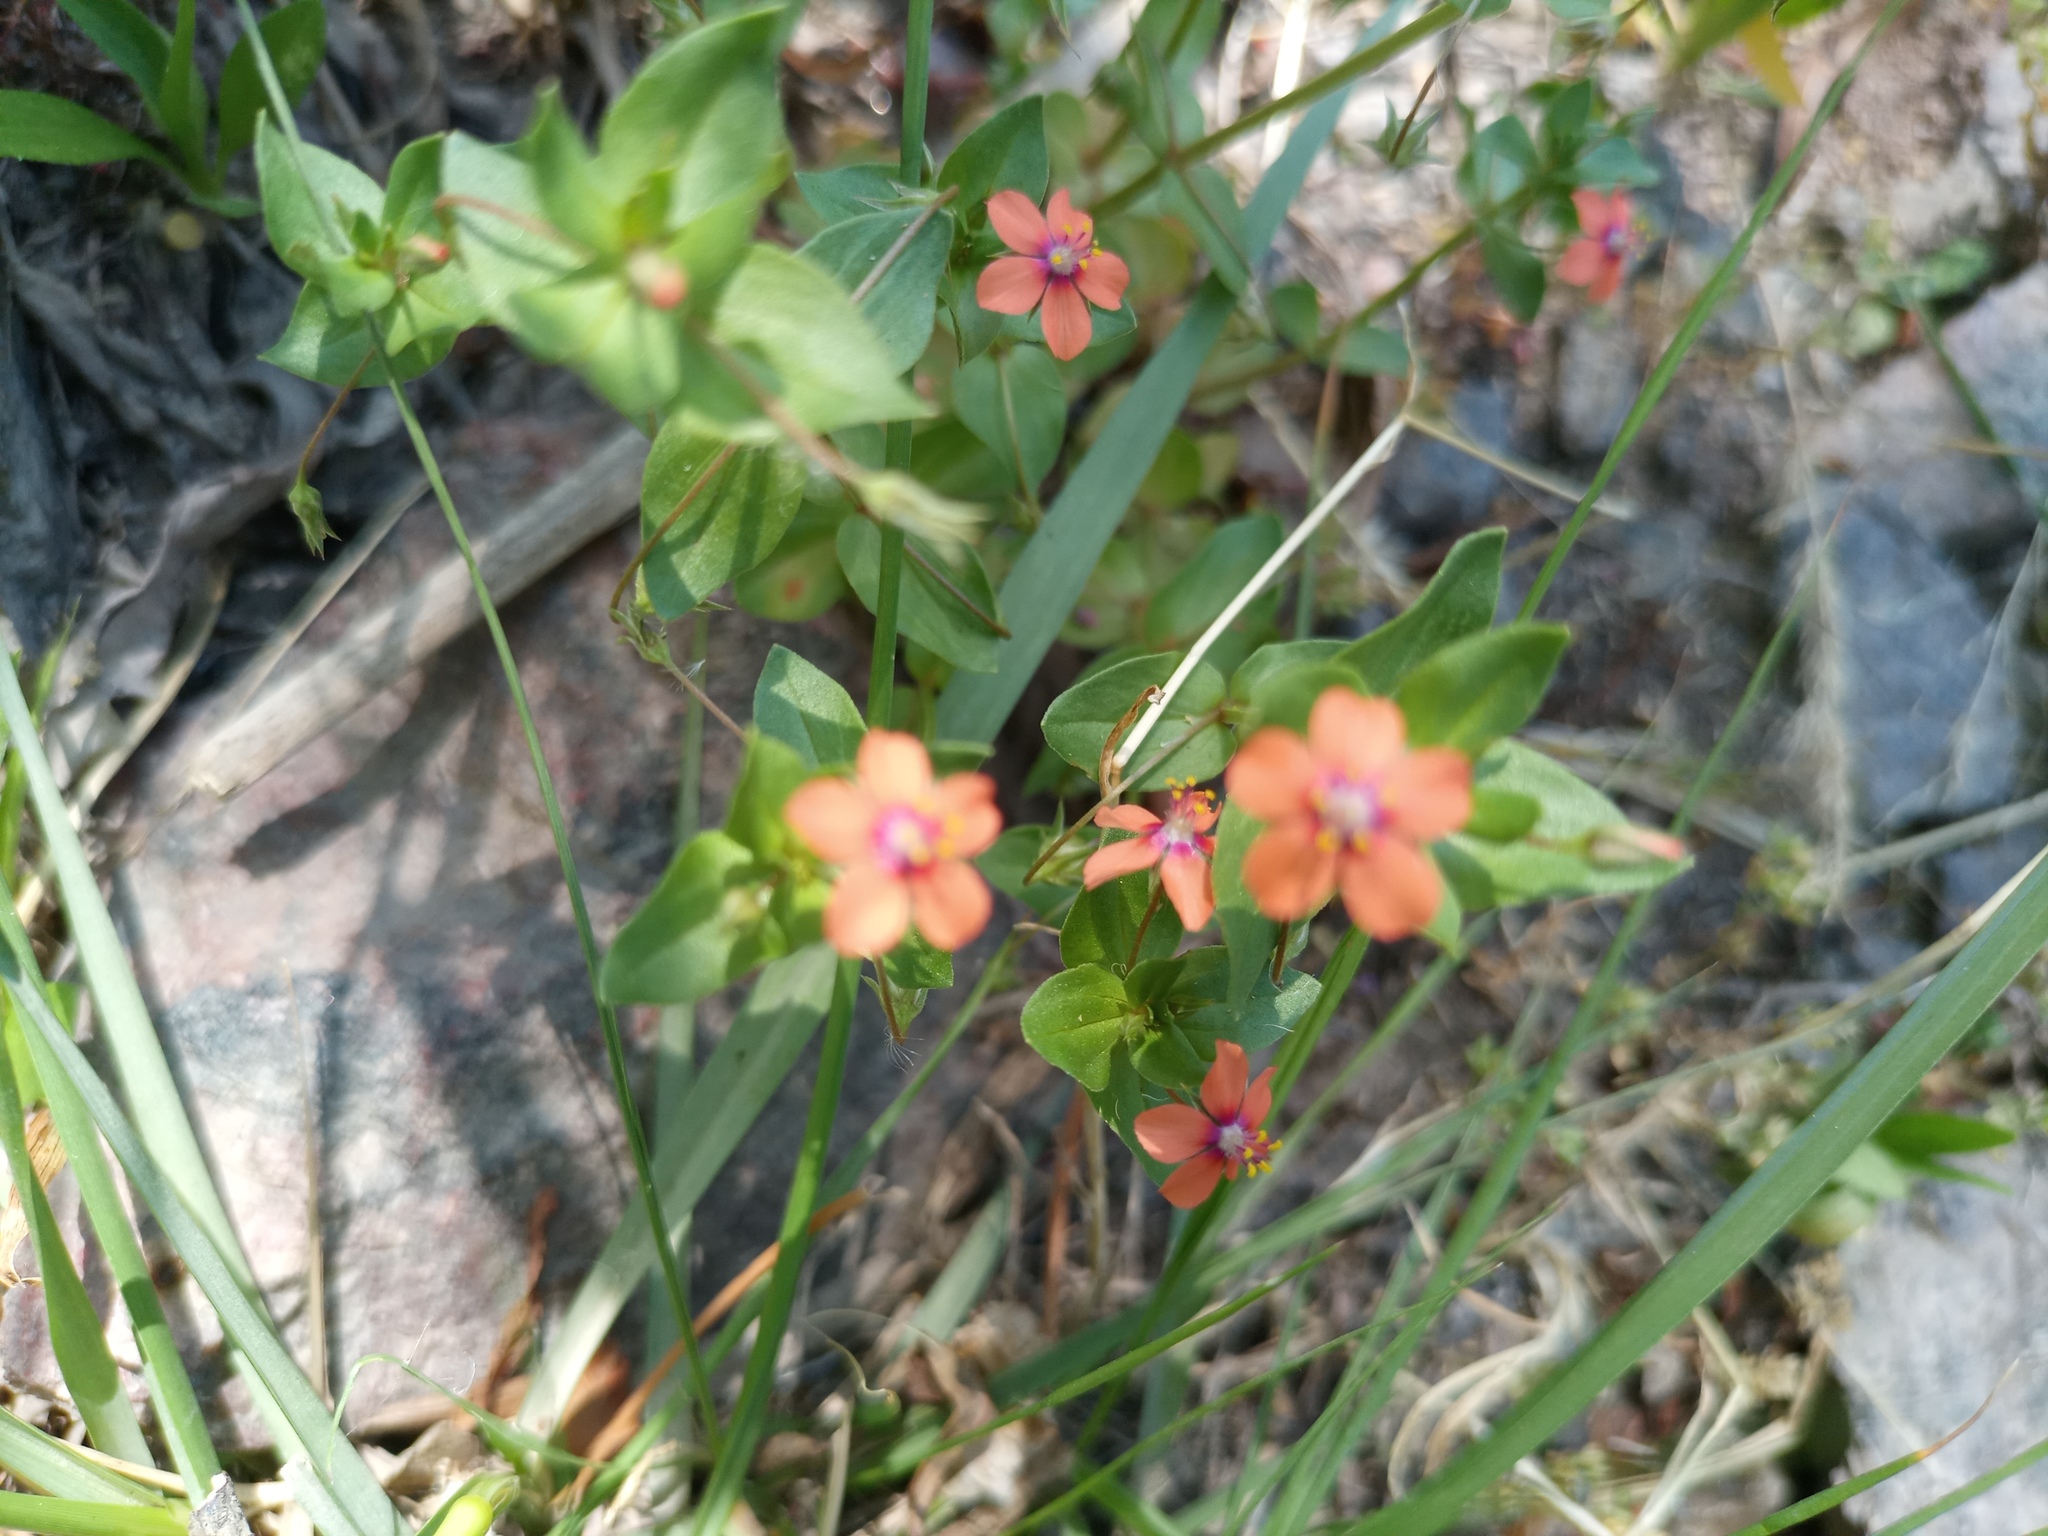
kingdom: Plantae
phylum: Tracheophyta
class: Magnoliopsida
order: Ericales
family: Primulaceae
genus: Lysimachia
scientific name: Lysimachia arvensis
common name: Scarlet pimpernel
